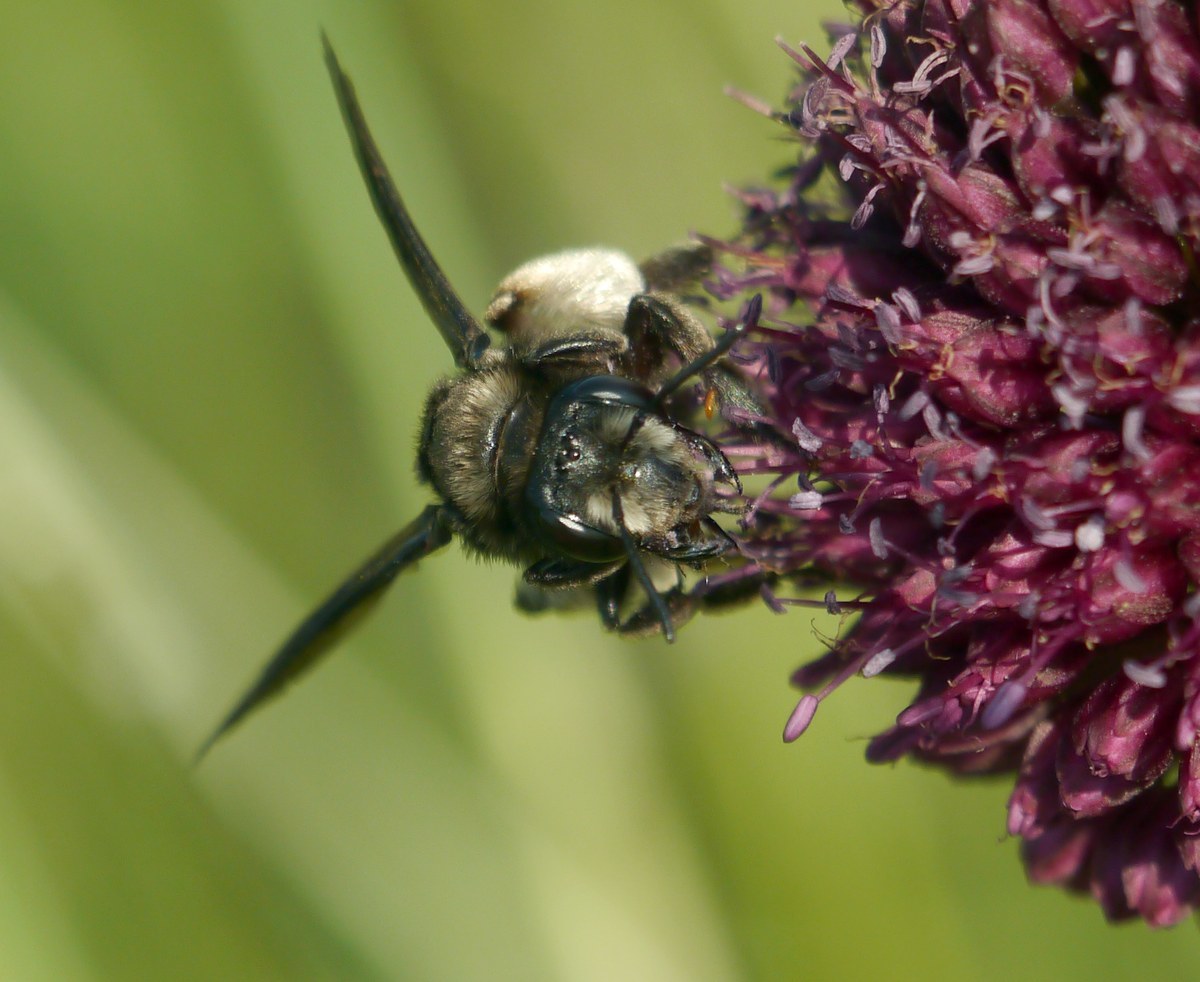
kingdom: Animalia
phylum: Arthropoda
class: Insecta
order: Hymenoptera
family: Andrenidae
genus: Andrena
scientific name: Andrena albopunctata
